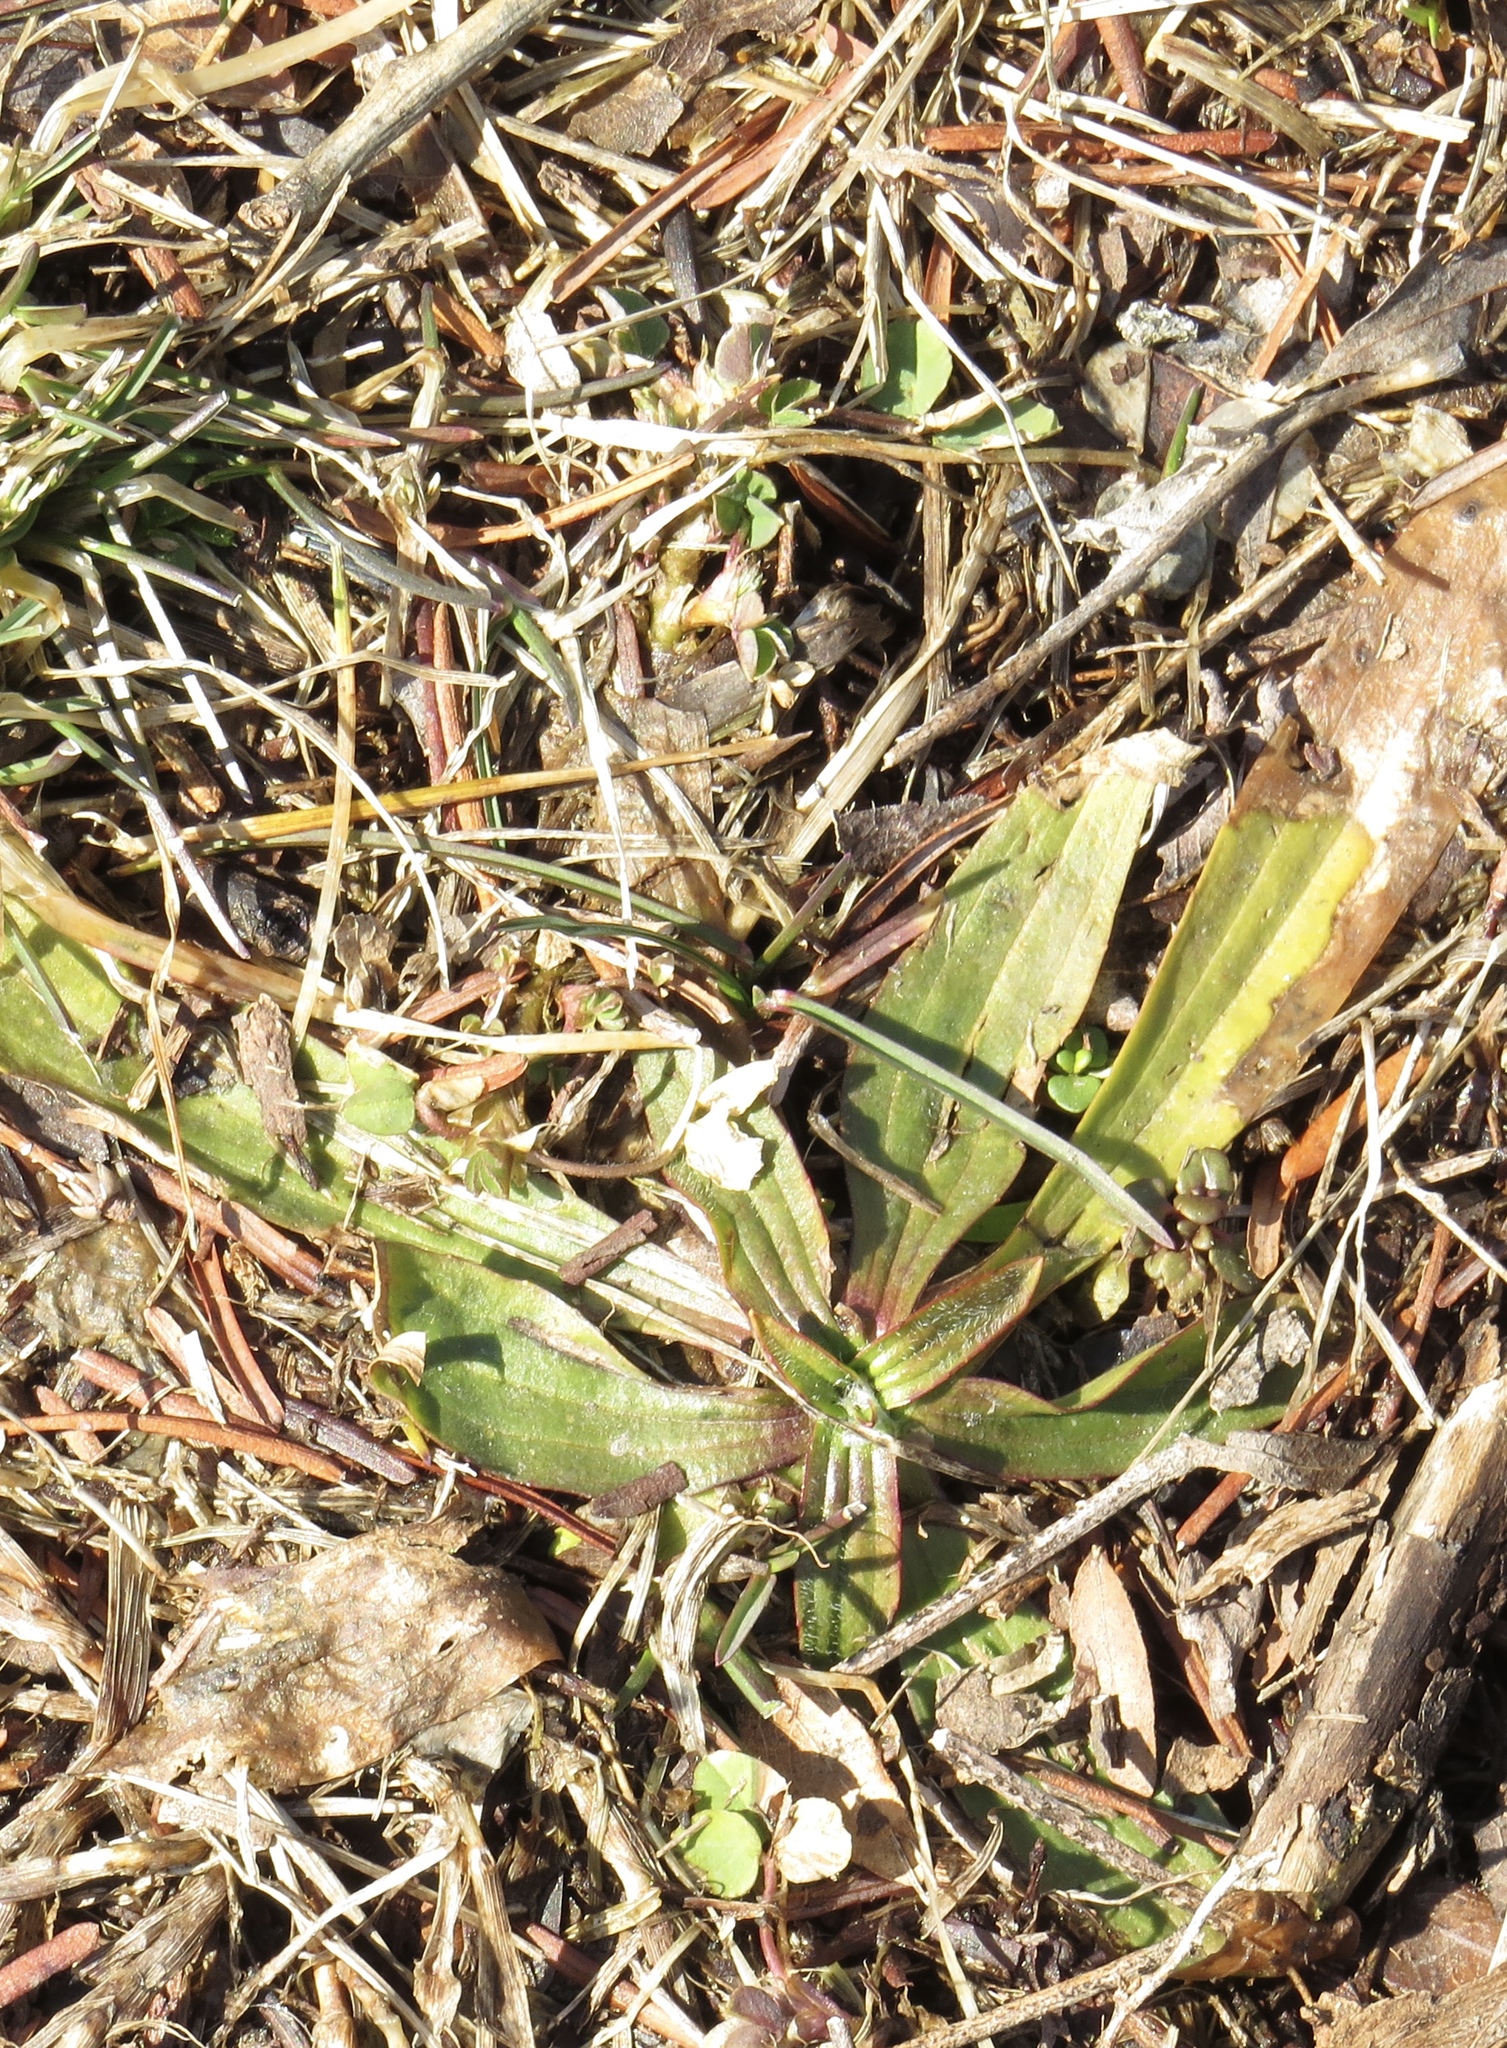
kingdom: Plantae
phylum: Tracheophyta
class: Magnoliopsida
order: Lamiales
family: Plantaginaceae
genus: Plantago
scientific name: Plantago lanceolata
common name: Ribwort plantain
